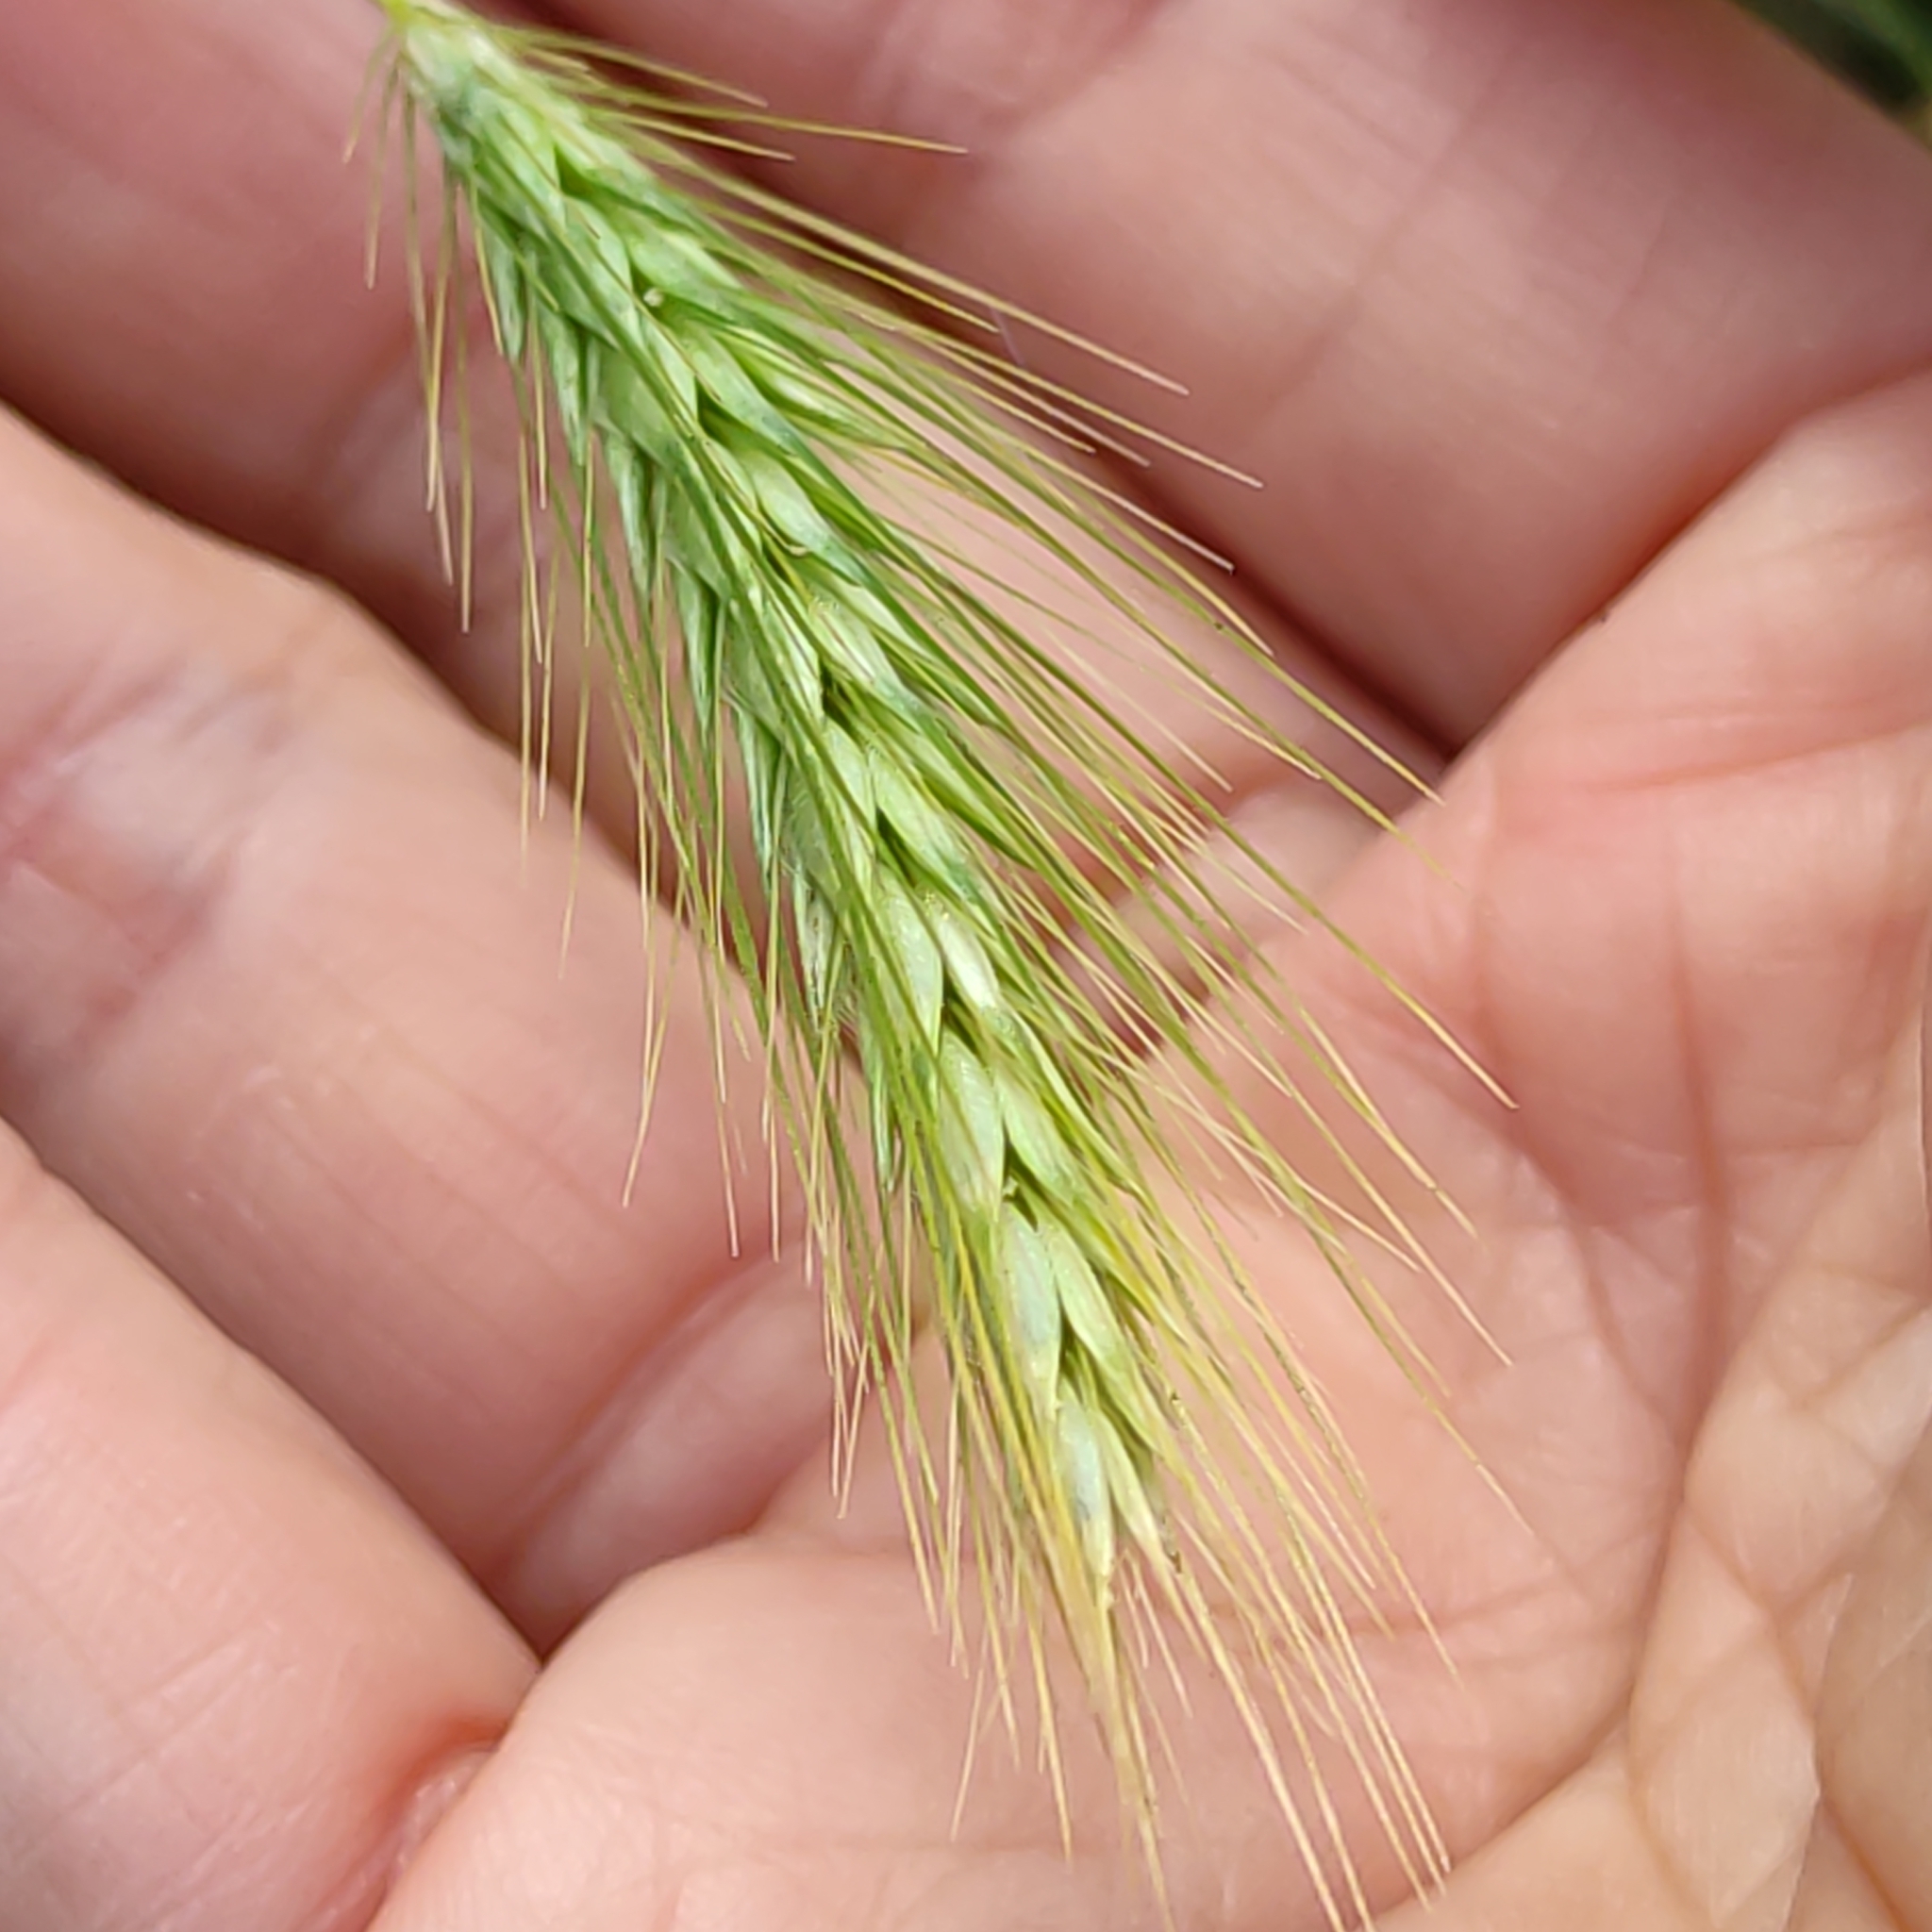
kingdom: Plantae
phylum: Tracheophyta
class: Liliopsida
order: Poales
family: Poaceae
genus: Hordeum
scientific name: Hordeum murinum
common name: Wall barley
